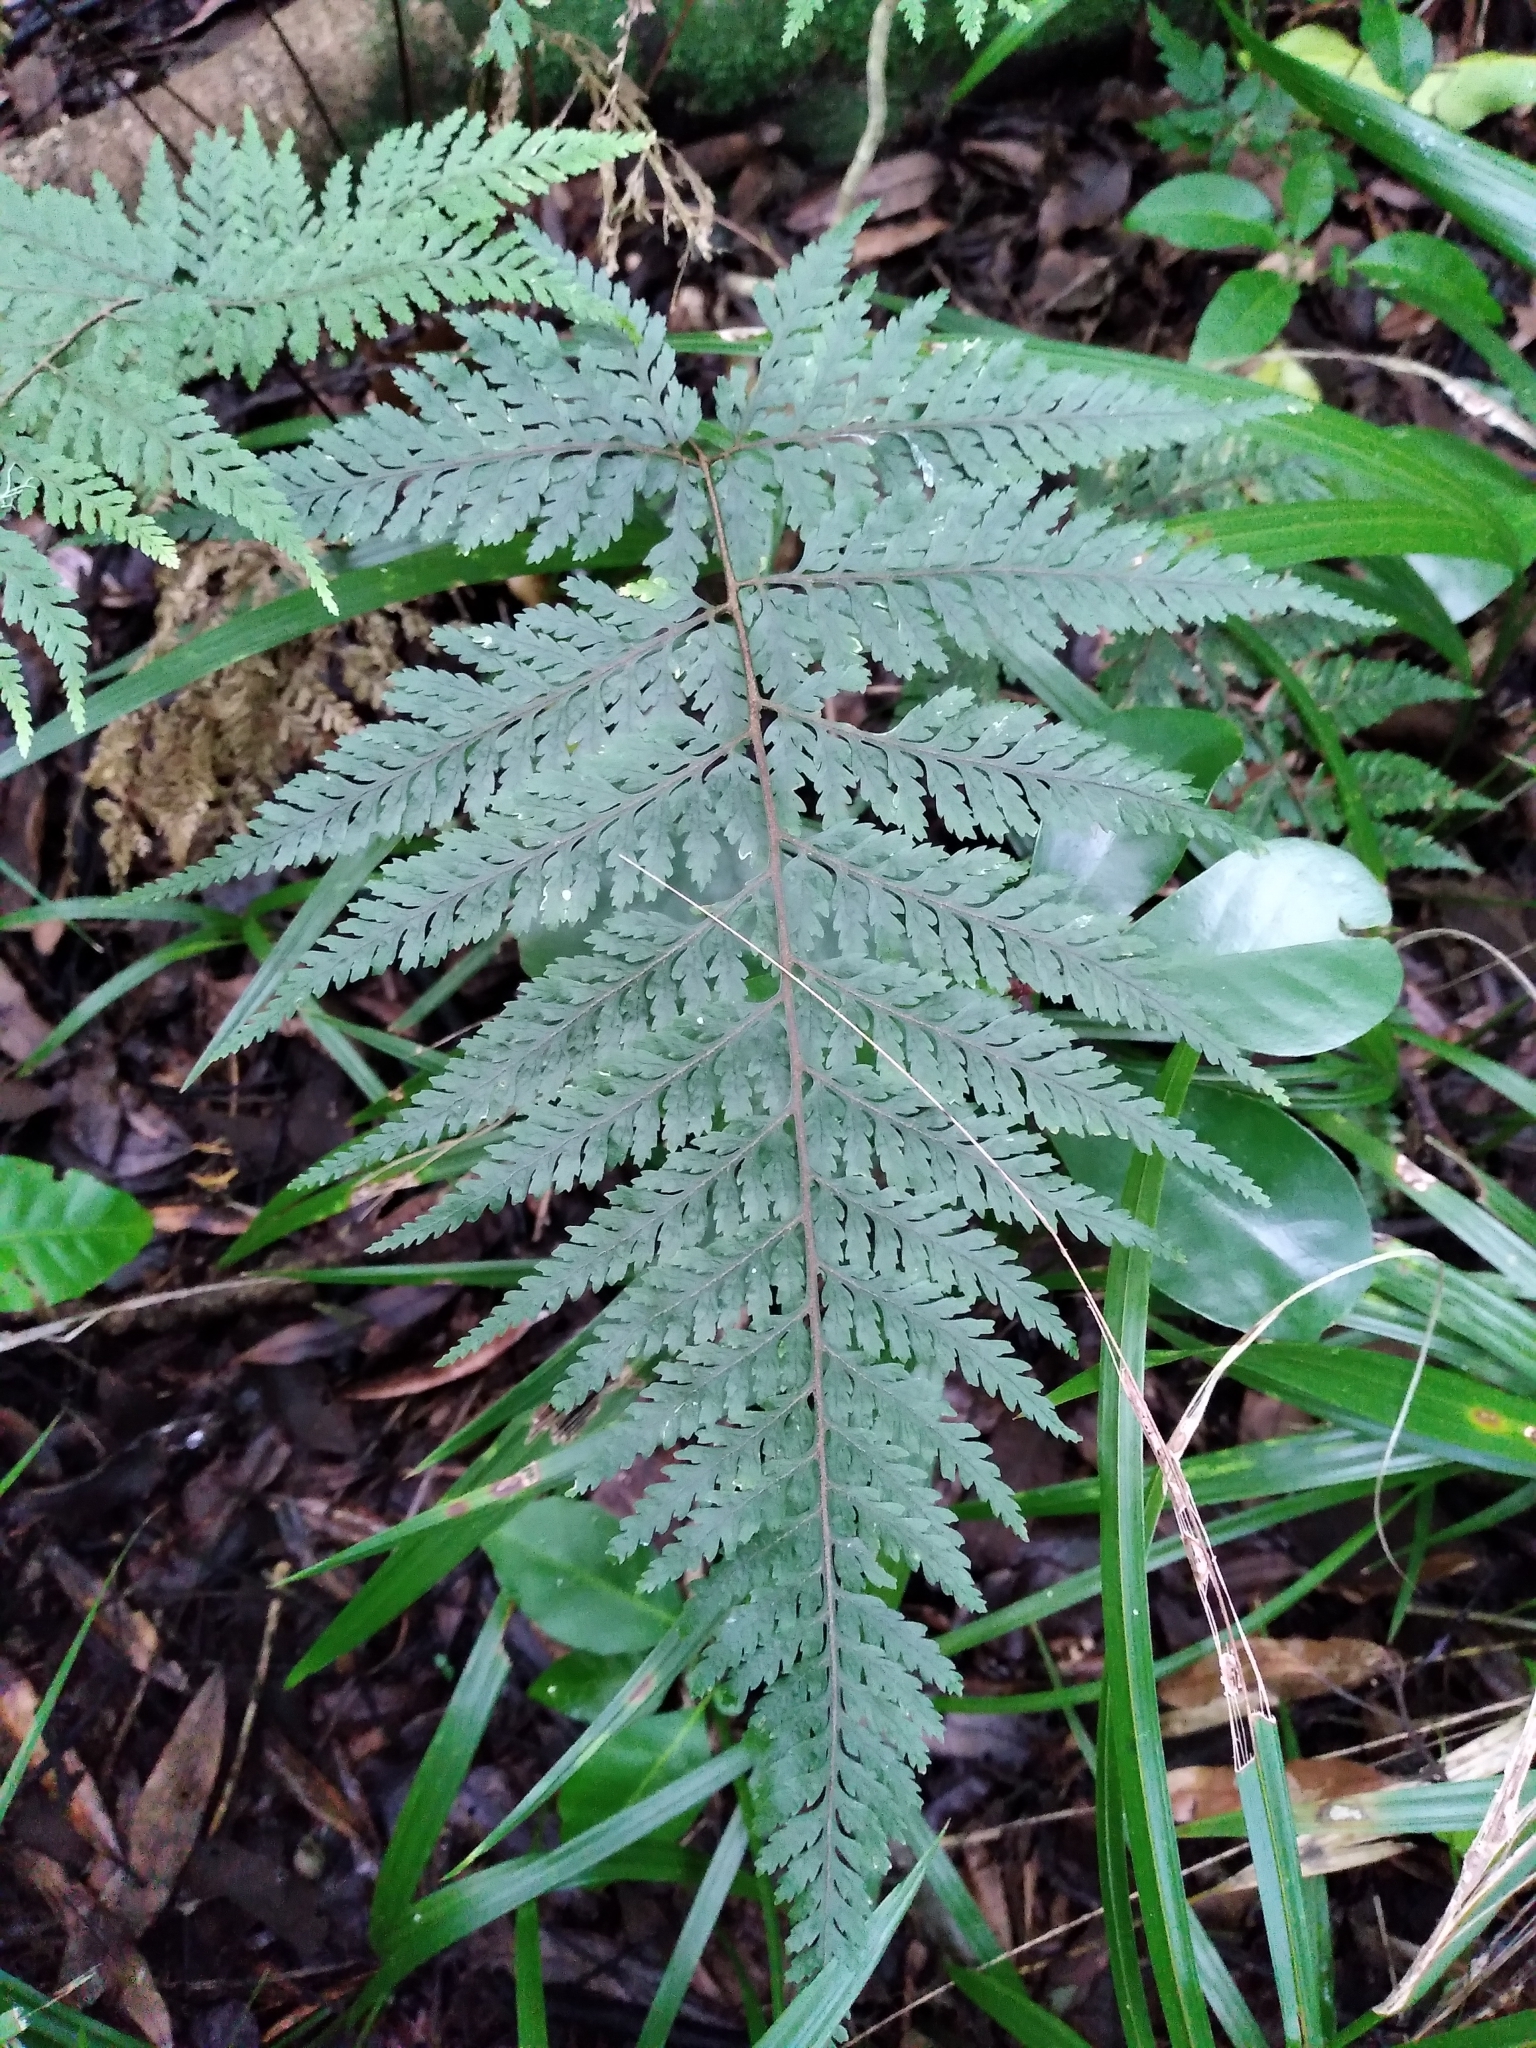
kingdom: Plantae
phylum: Tracheophyta
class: Polypodiopsida
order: Polypodiales
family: Dryopteridaceae
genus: Parapolystichum
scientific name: Parapolystichum glabellum
